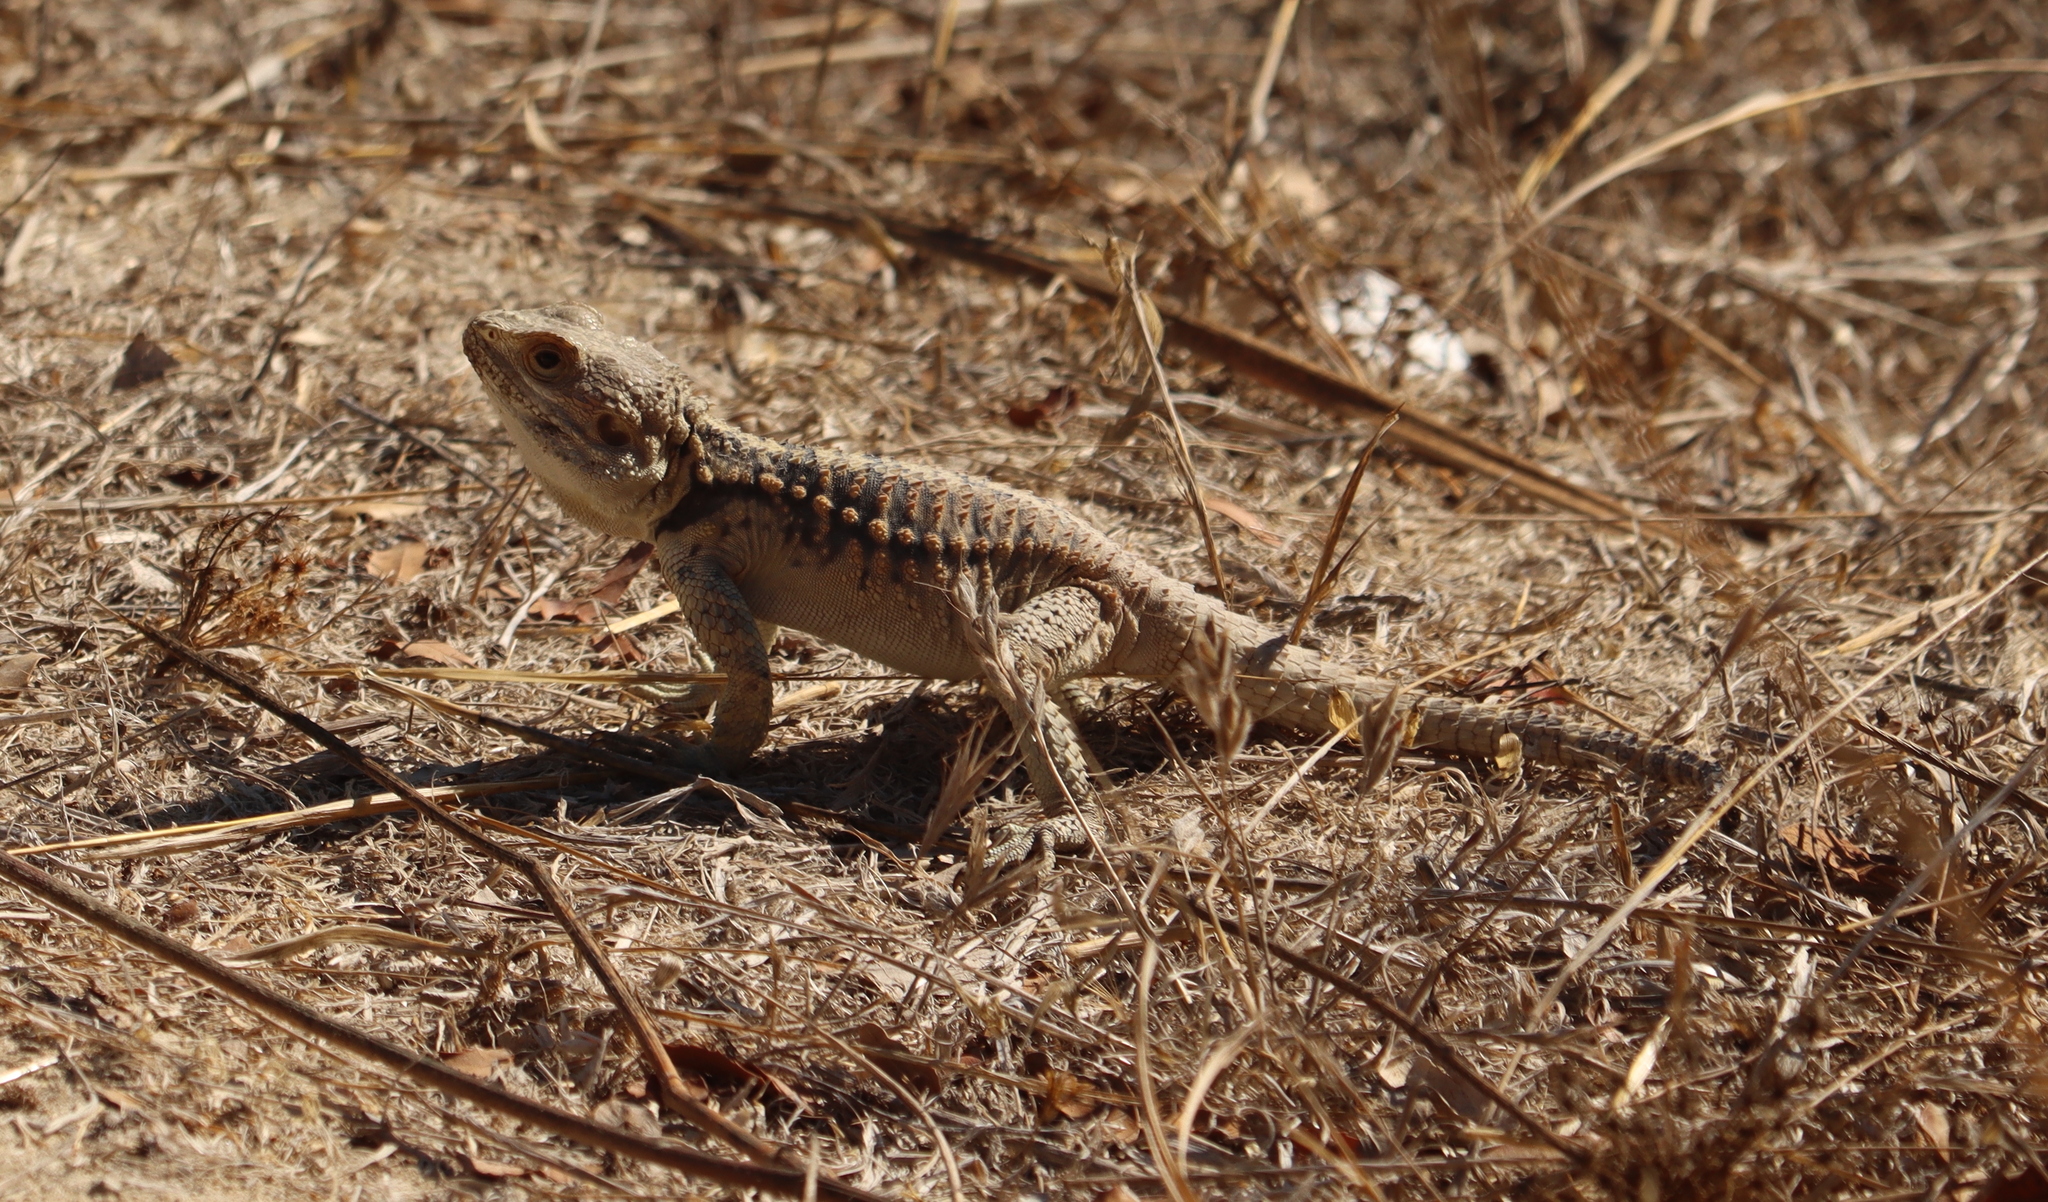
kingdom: Animalia
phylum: Chordata
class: Squamata
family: Agamidae
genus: Laudakia
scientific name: Laudakia
